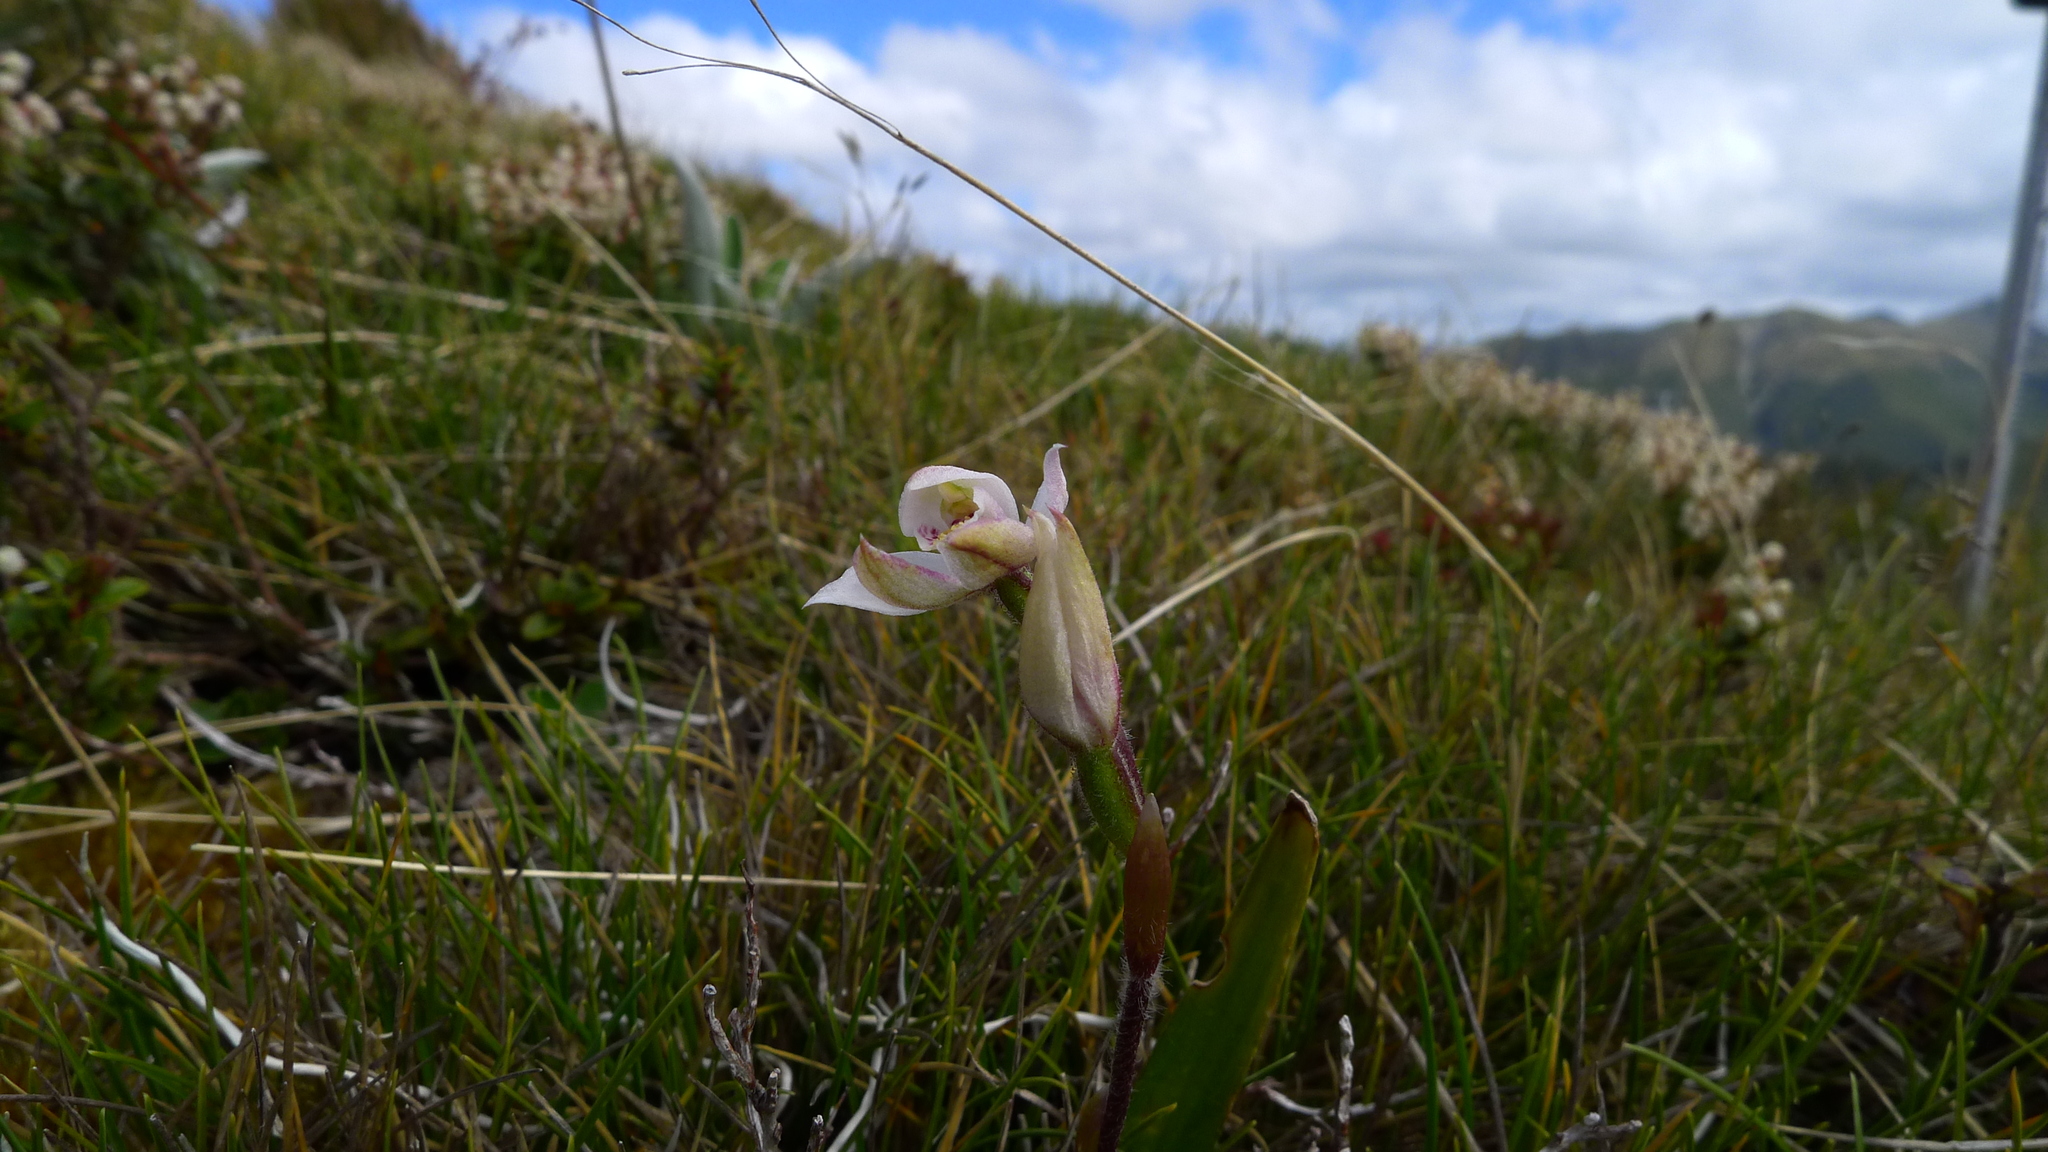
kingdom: Plantae
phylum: Tracheophyta
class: Liliopsida
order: Asparagales
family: Orchidaceae
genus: Caladenia
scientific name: Caladenia lyallii
